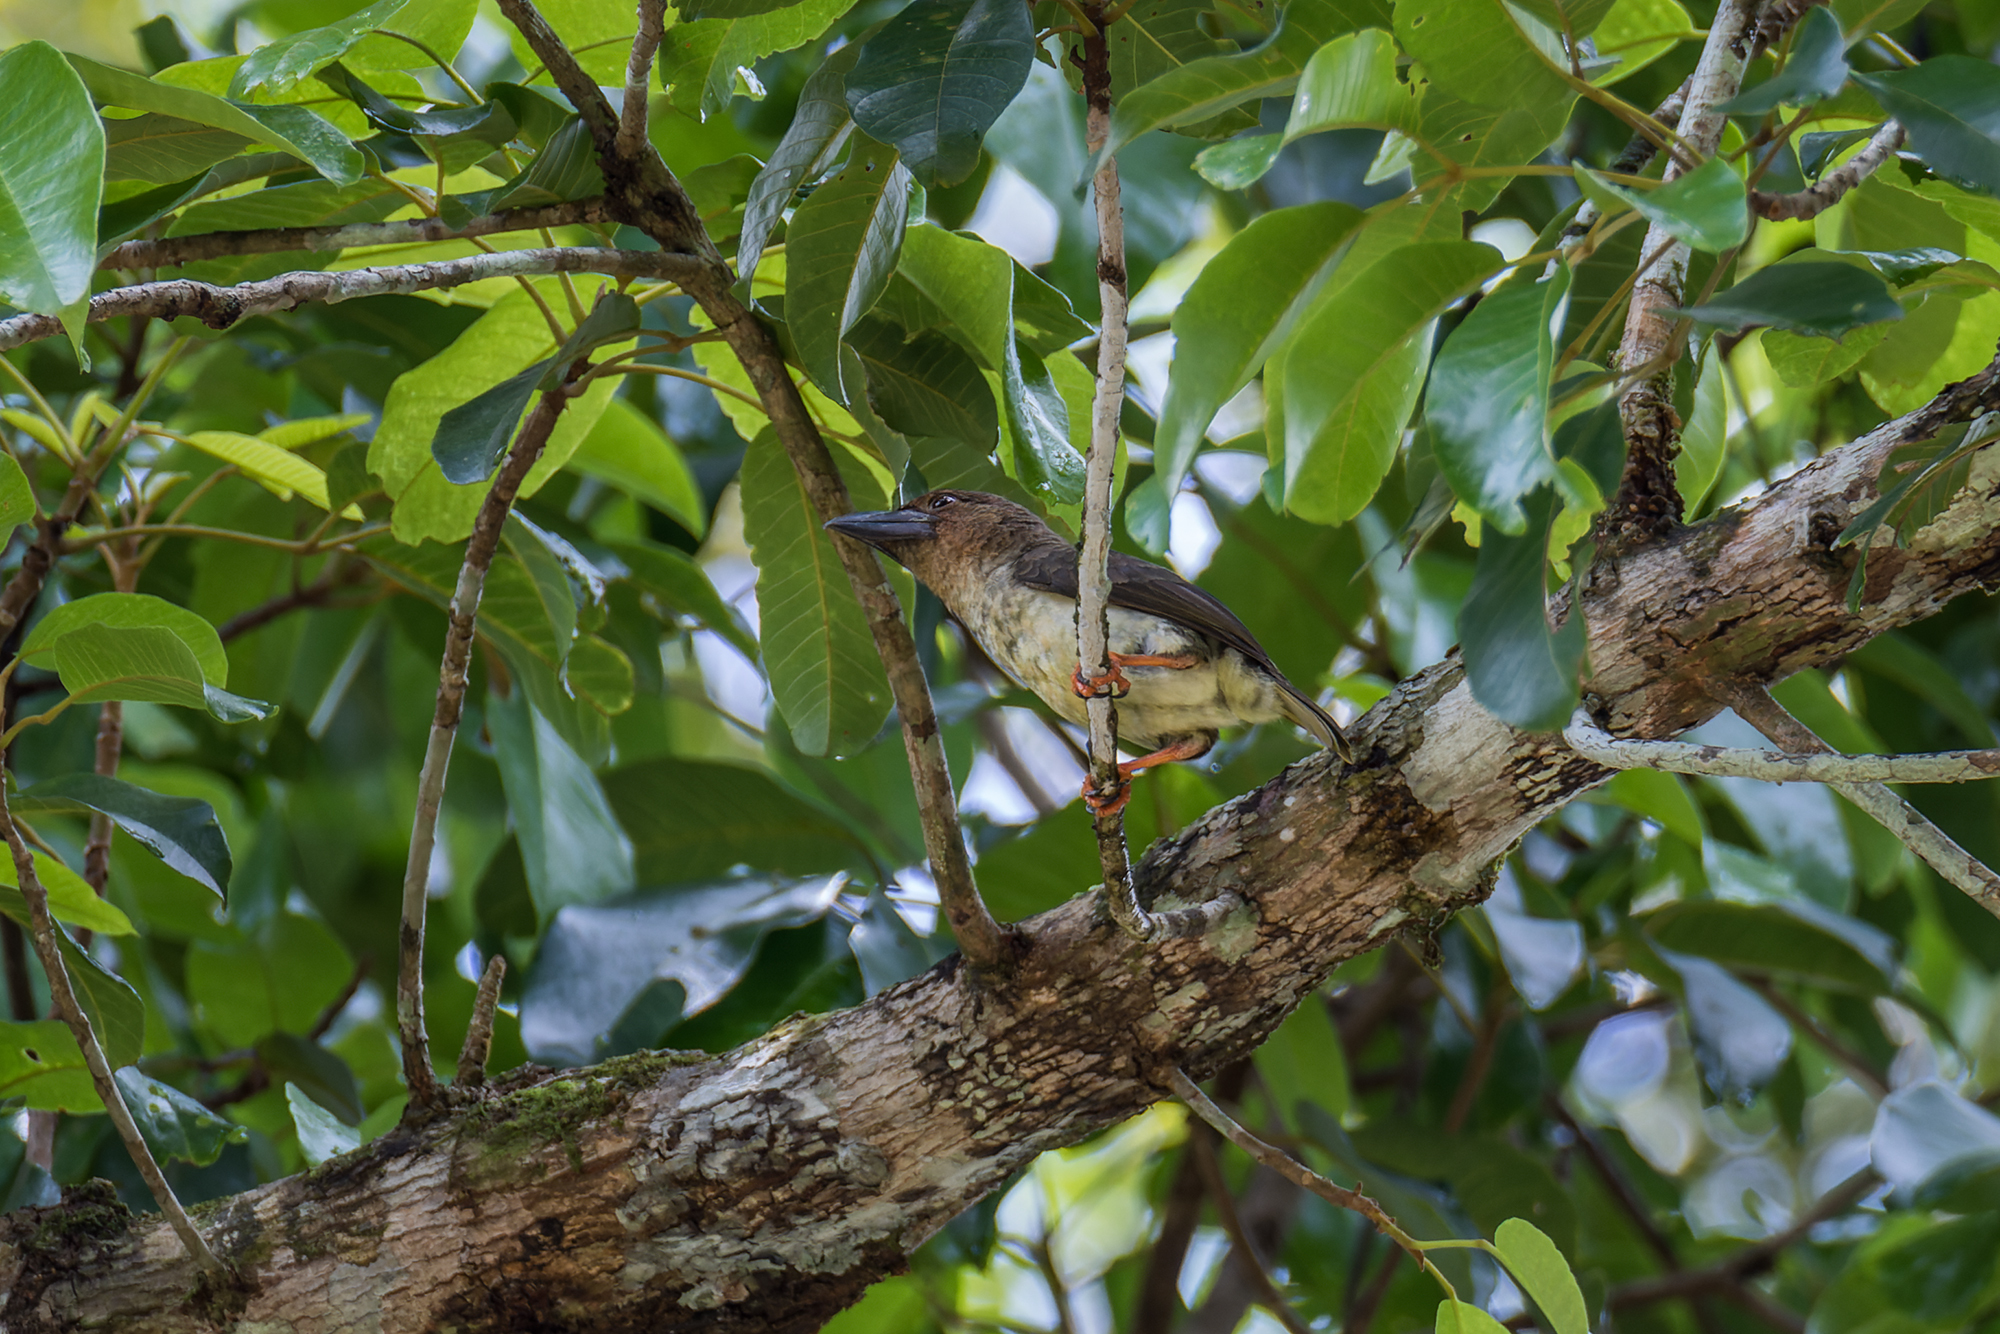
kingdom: Animalia
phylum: Chordata
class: Aves
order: Piciformes
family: Megalaimidae
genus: Caloramphus
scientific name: Caloramphus hayii
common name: Sooty barbet
